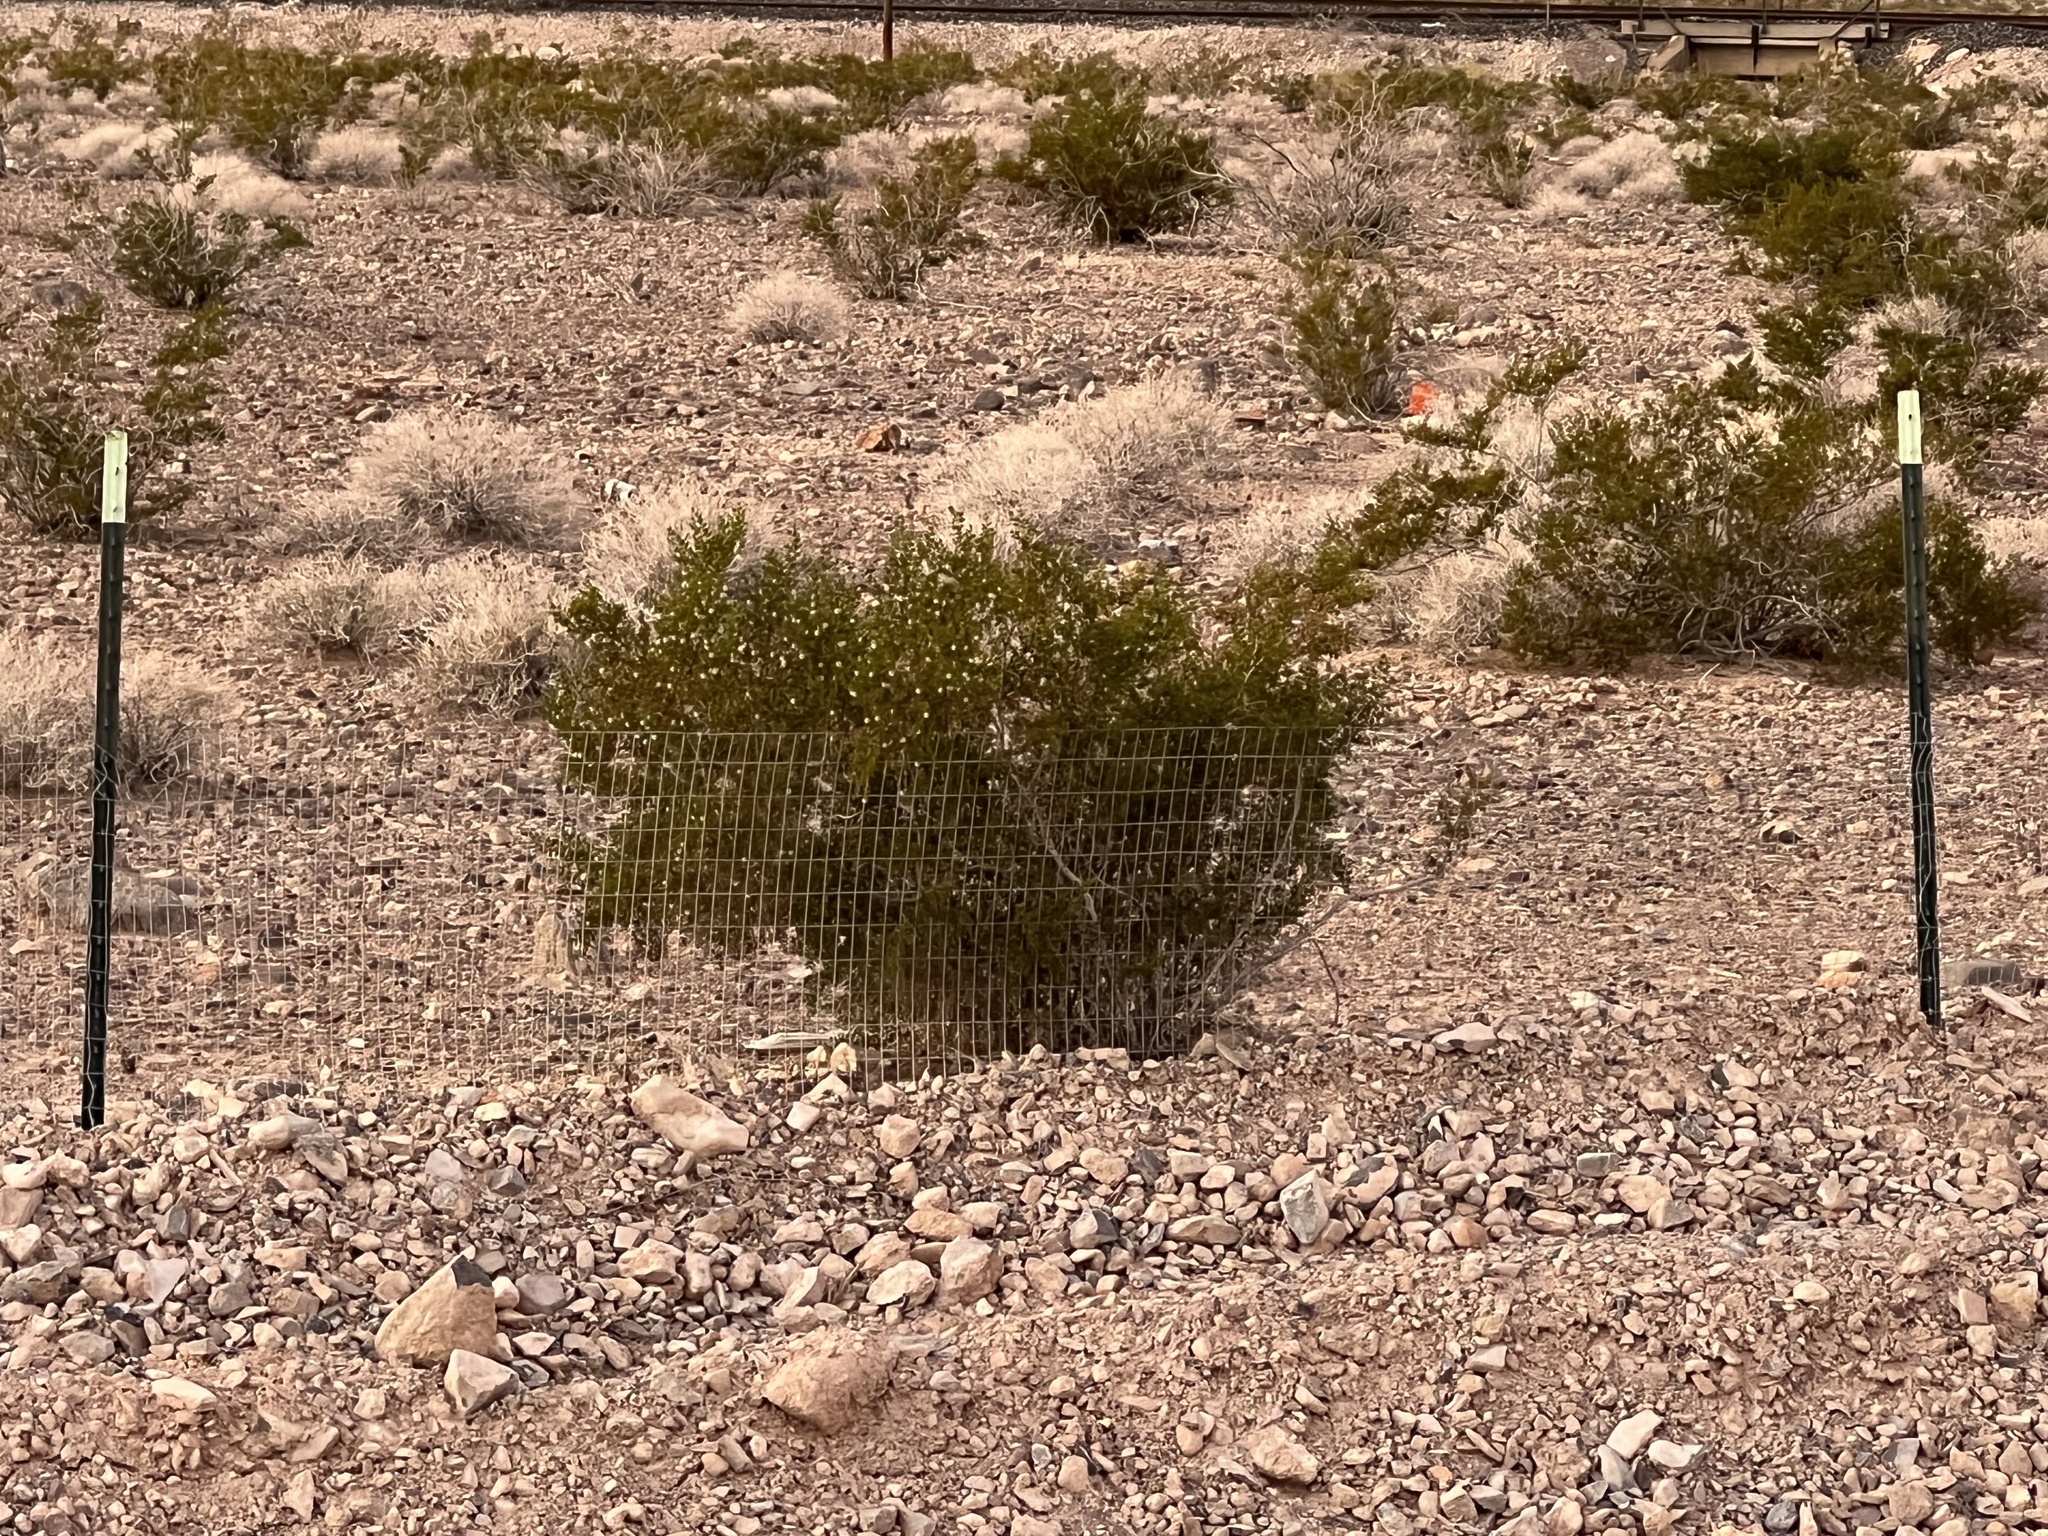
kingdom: Plantae
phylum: Tracheophyta
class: Magnoliopsida
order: Zygophyllales
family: Zygophyllaceae
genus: Larrea
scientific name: Larrea tridentata
